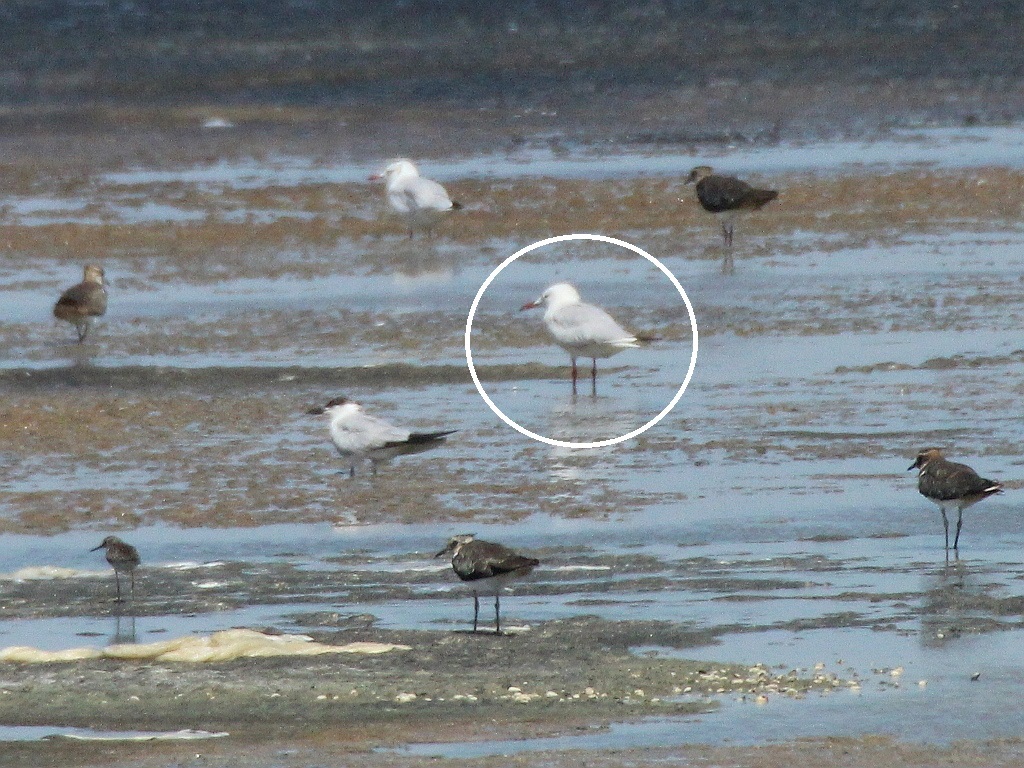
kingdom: Animalia
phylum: Chordata
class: Aves
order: Charadriiformes
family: Laridae
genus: Chroicocephalus
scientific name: Chroicocephalus genei
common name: Slender-billed gull
